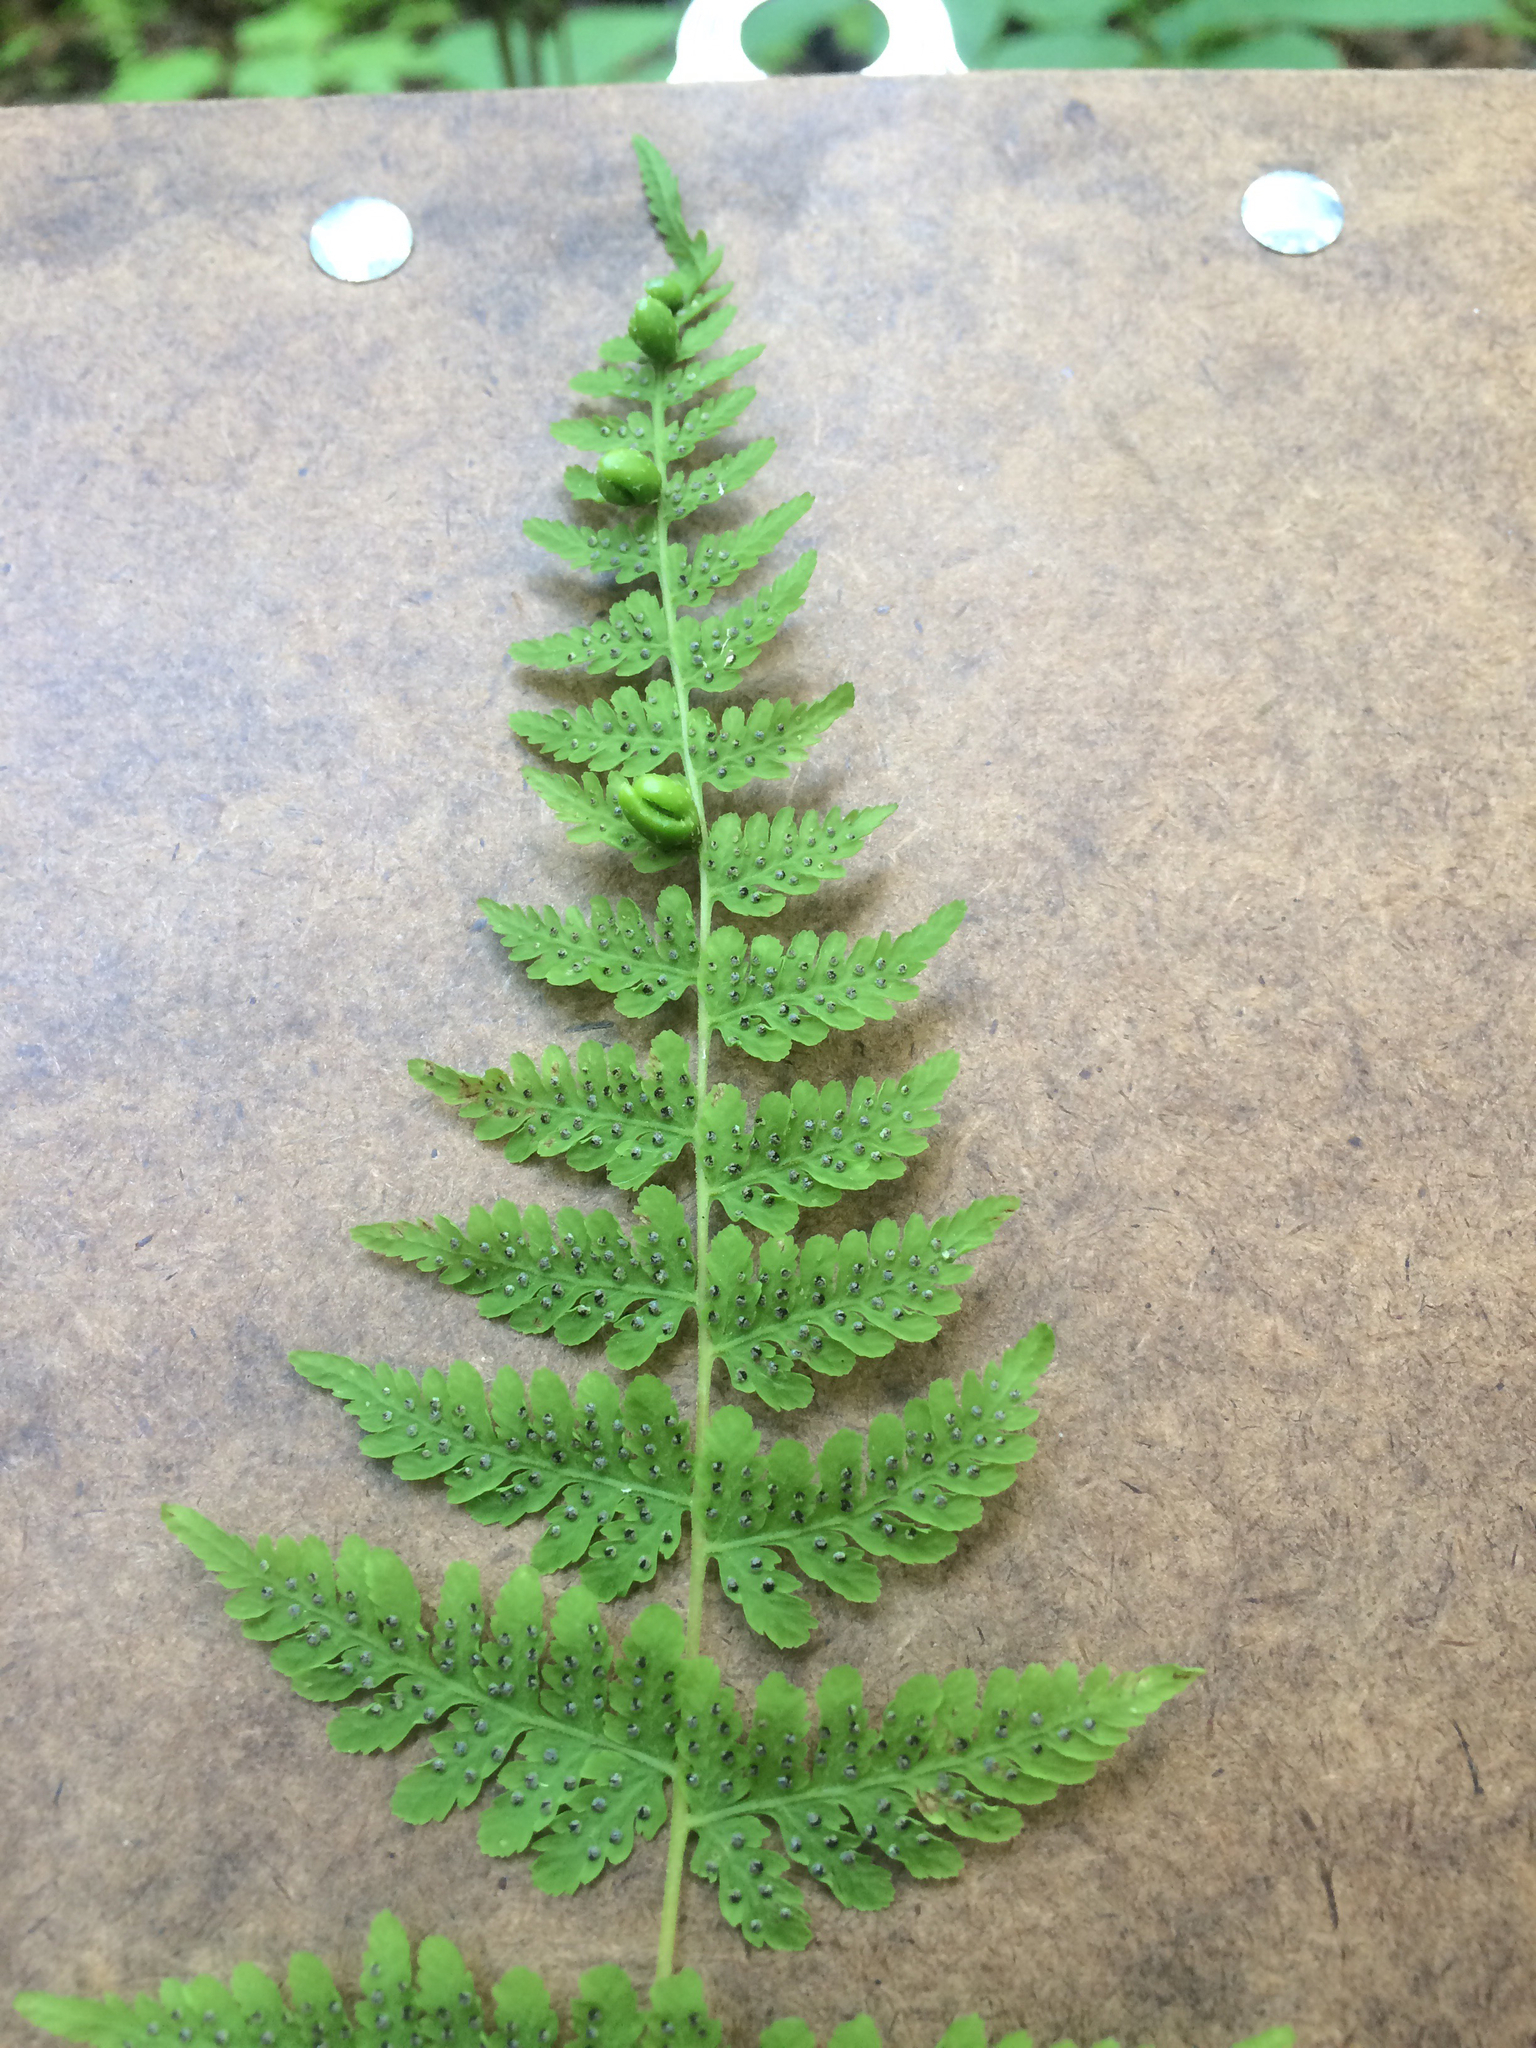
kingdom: Plantae
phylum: Tracheophyta
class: Polypodiopsida
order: Polypodiales
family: Cystopteridaceae
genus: Cystopteris
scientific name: Cystopteris bulbifera
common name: Bulblet bladder fern
